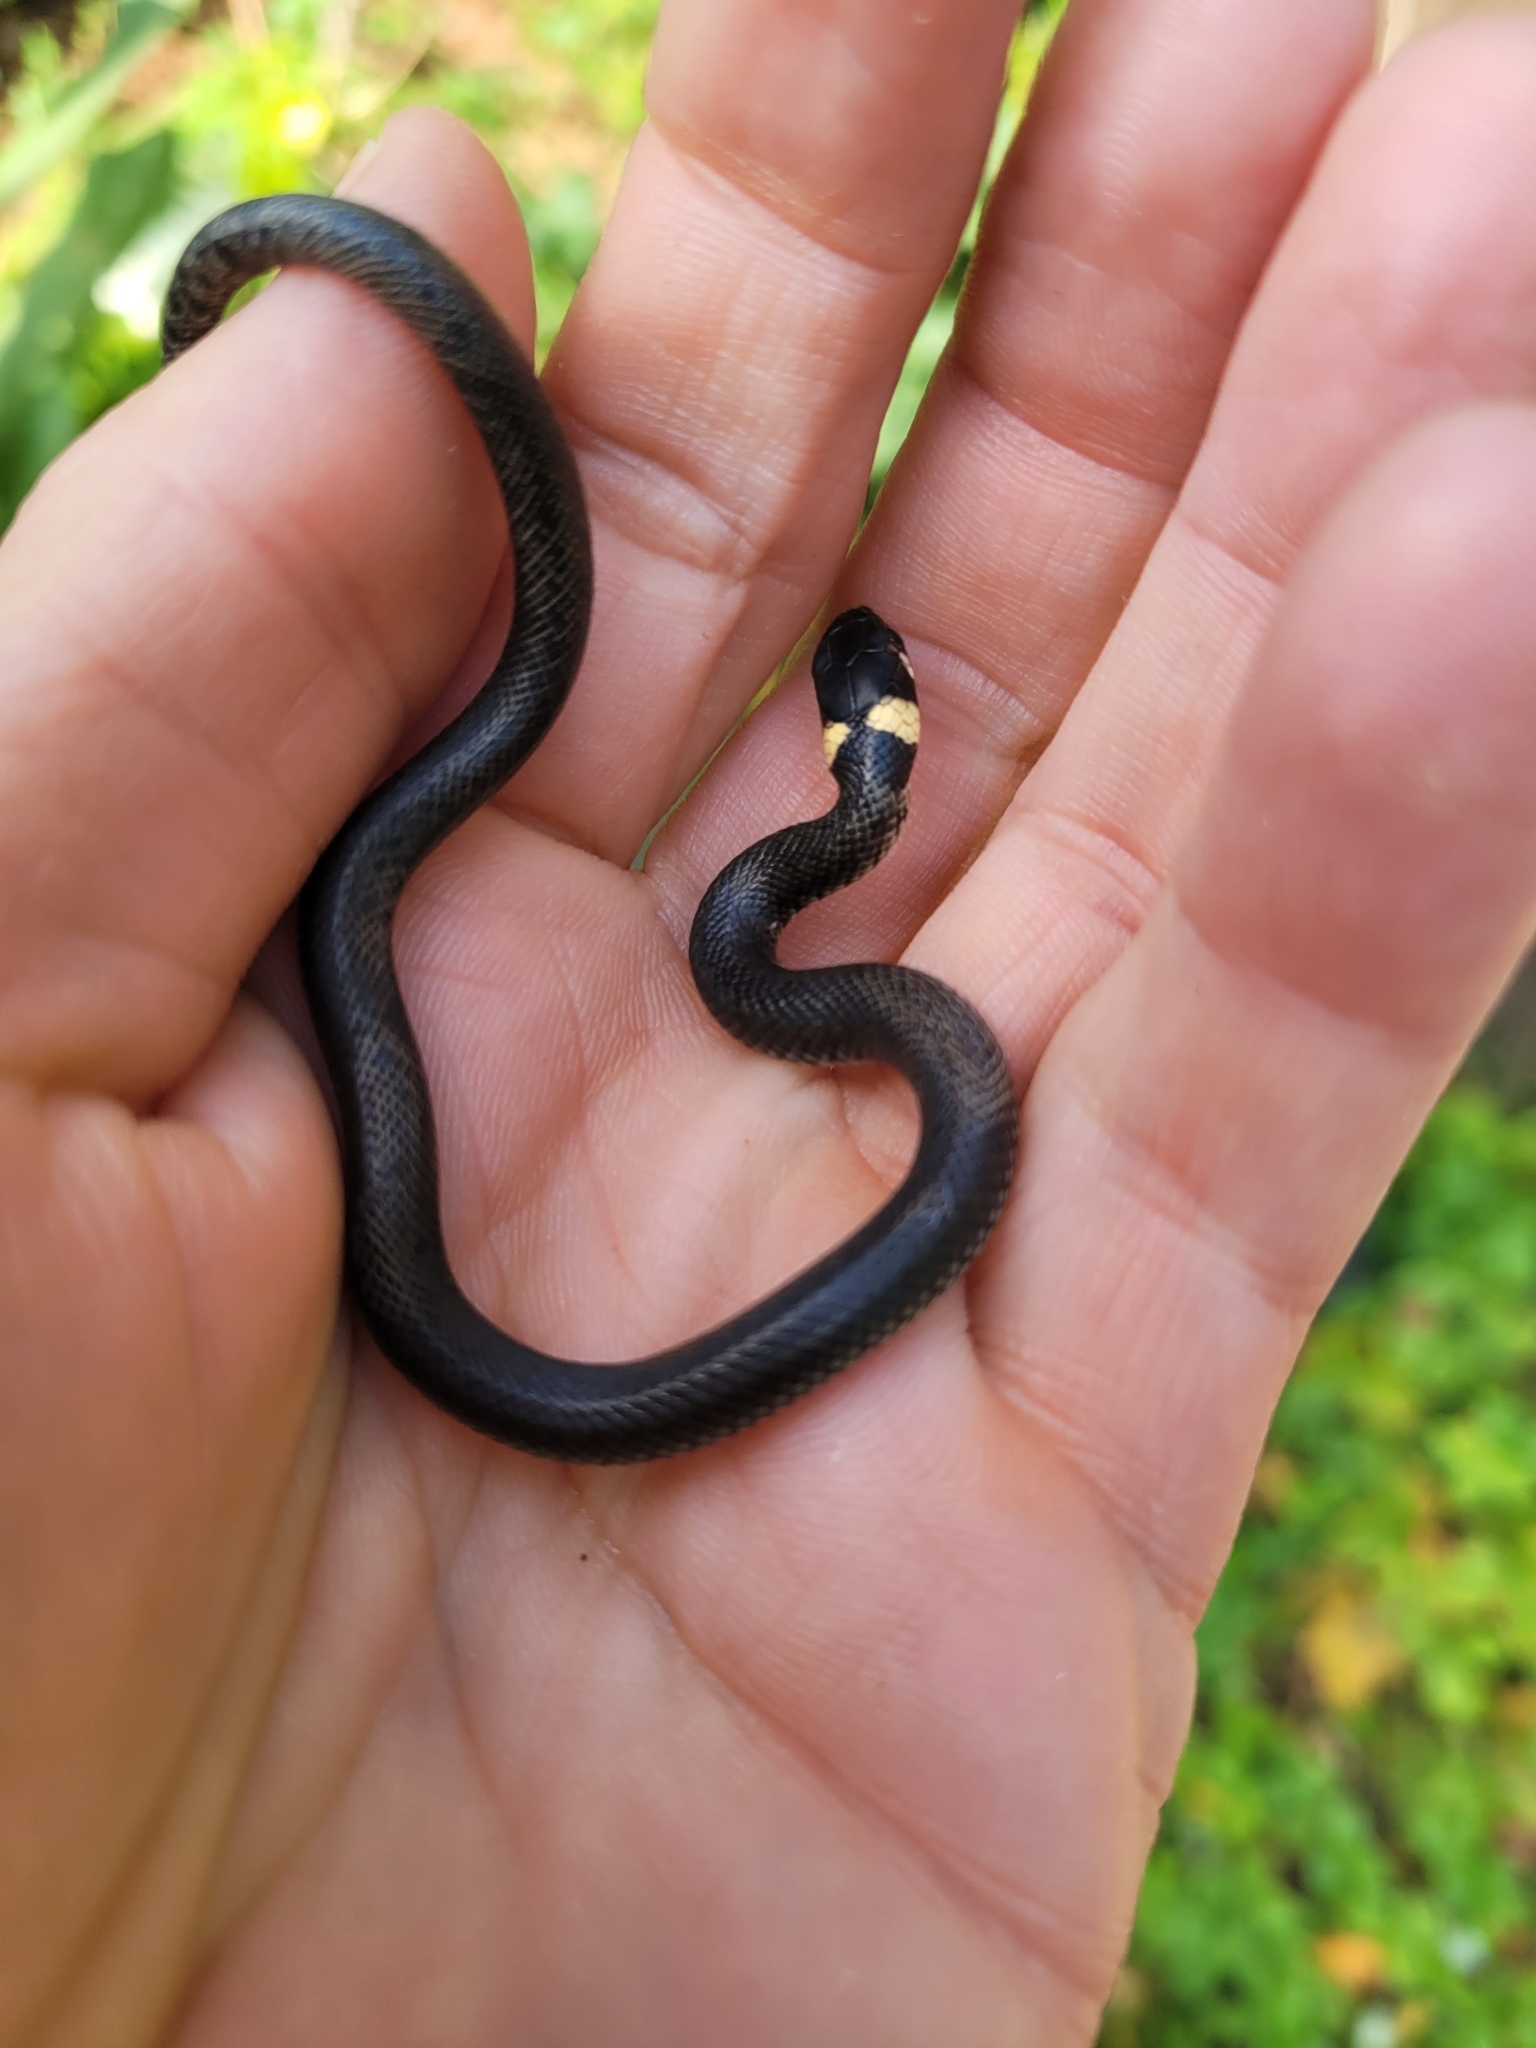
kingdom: Animalia
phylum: Chordata
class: Squamata
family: Colubridae
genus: Natrix
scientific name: Natrix natrix
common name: Grass snake
